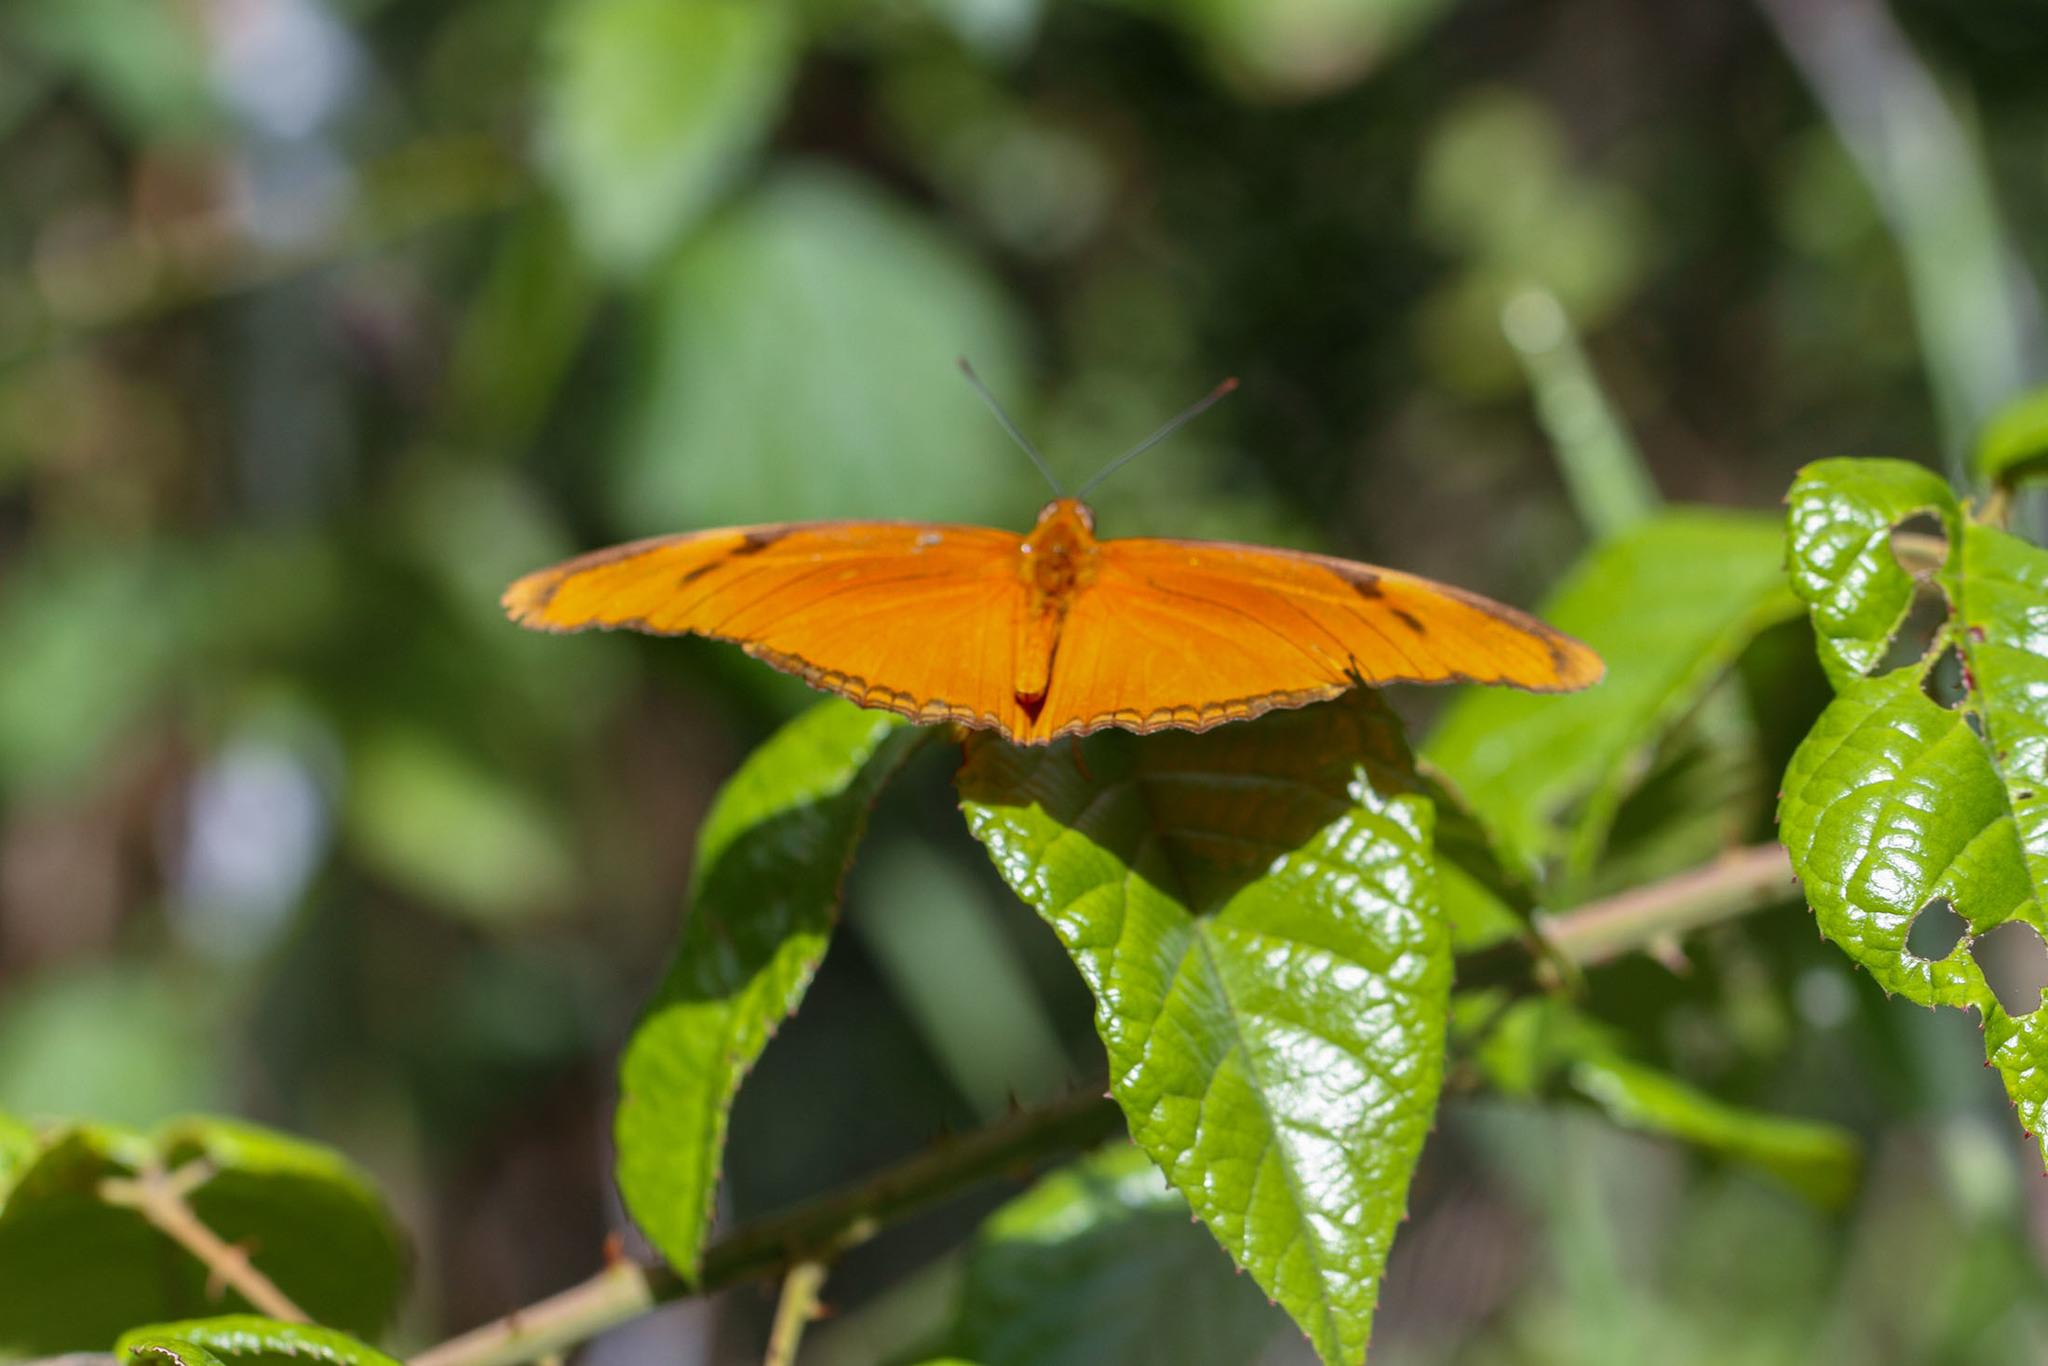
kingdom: Animalia
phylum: Arthropoda
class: Insecta
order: Lepidoptera
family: Nymphalidae
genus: Dryas
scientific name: Dryas iulia
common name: Flambeau
